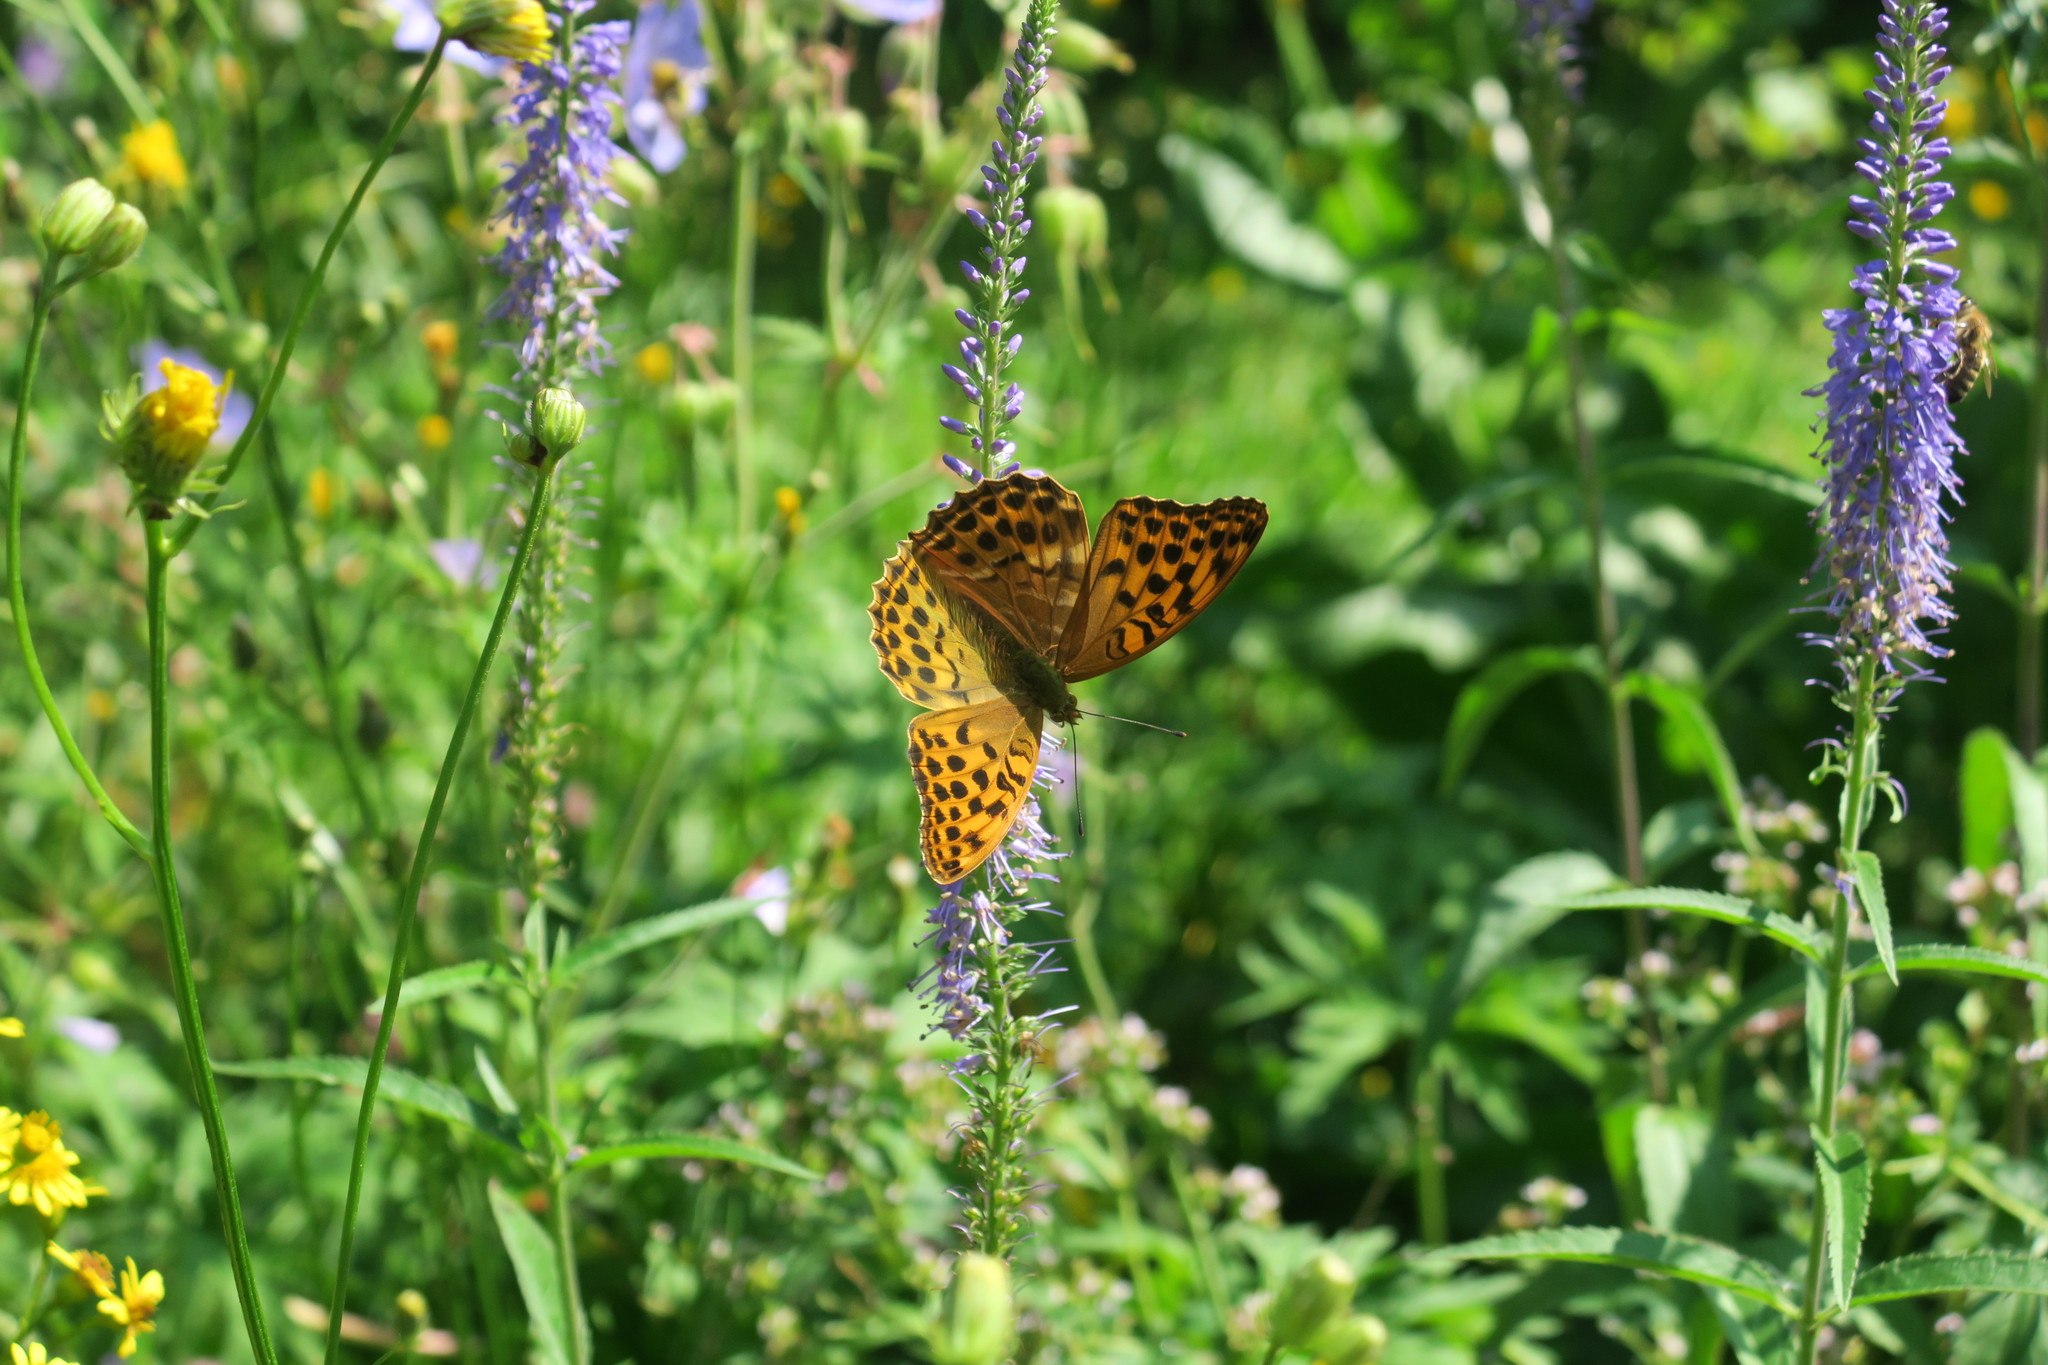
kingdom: Animalia
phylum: Arthropoda
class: Insecta
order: Lepidoptera
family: Nymphalidae
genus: Argynnis
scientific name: Argynnis paphia
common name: Silver-washed fritillary
